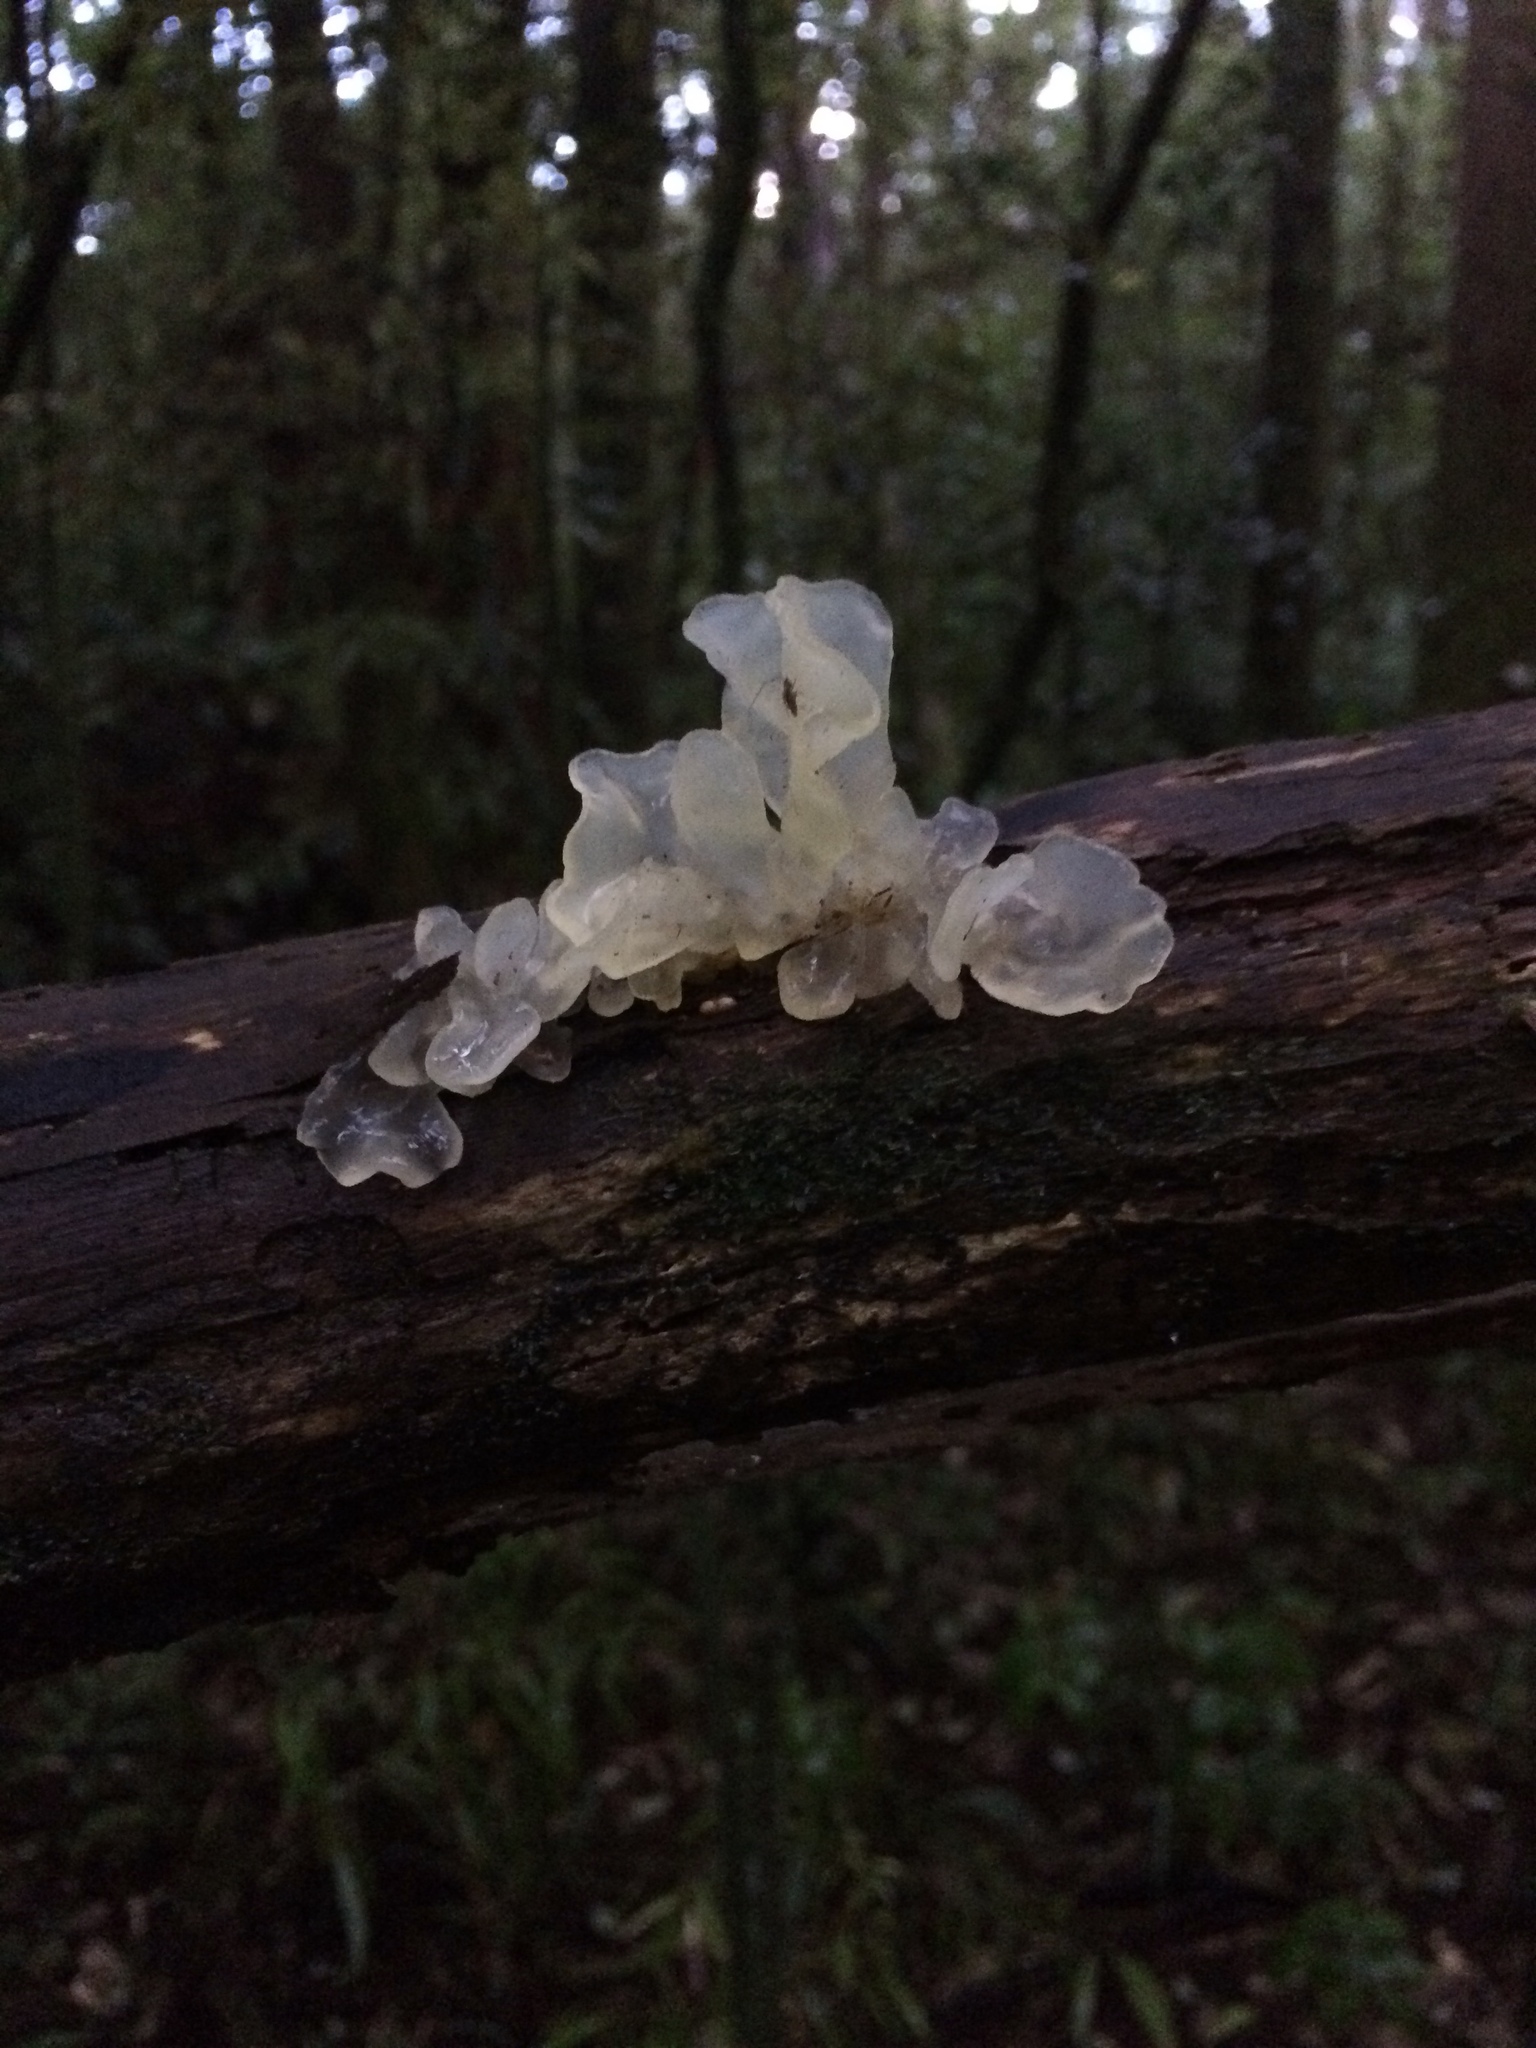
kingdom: Fungi
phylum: Basidiomycota
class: Tremellomycetes
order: Tremellales
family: Tremellaceae
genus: Tremella
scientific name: Tremella fuciformis
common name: Snow fungus
